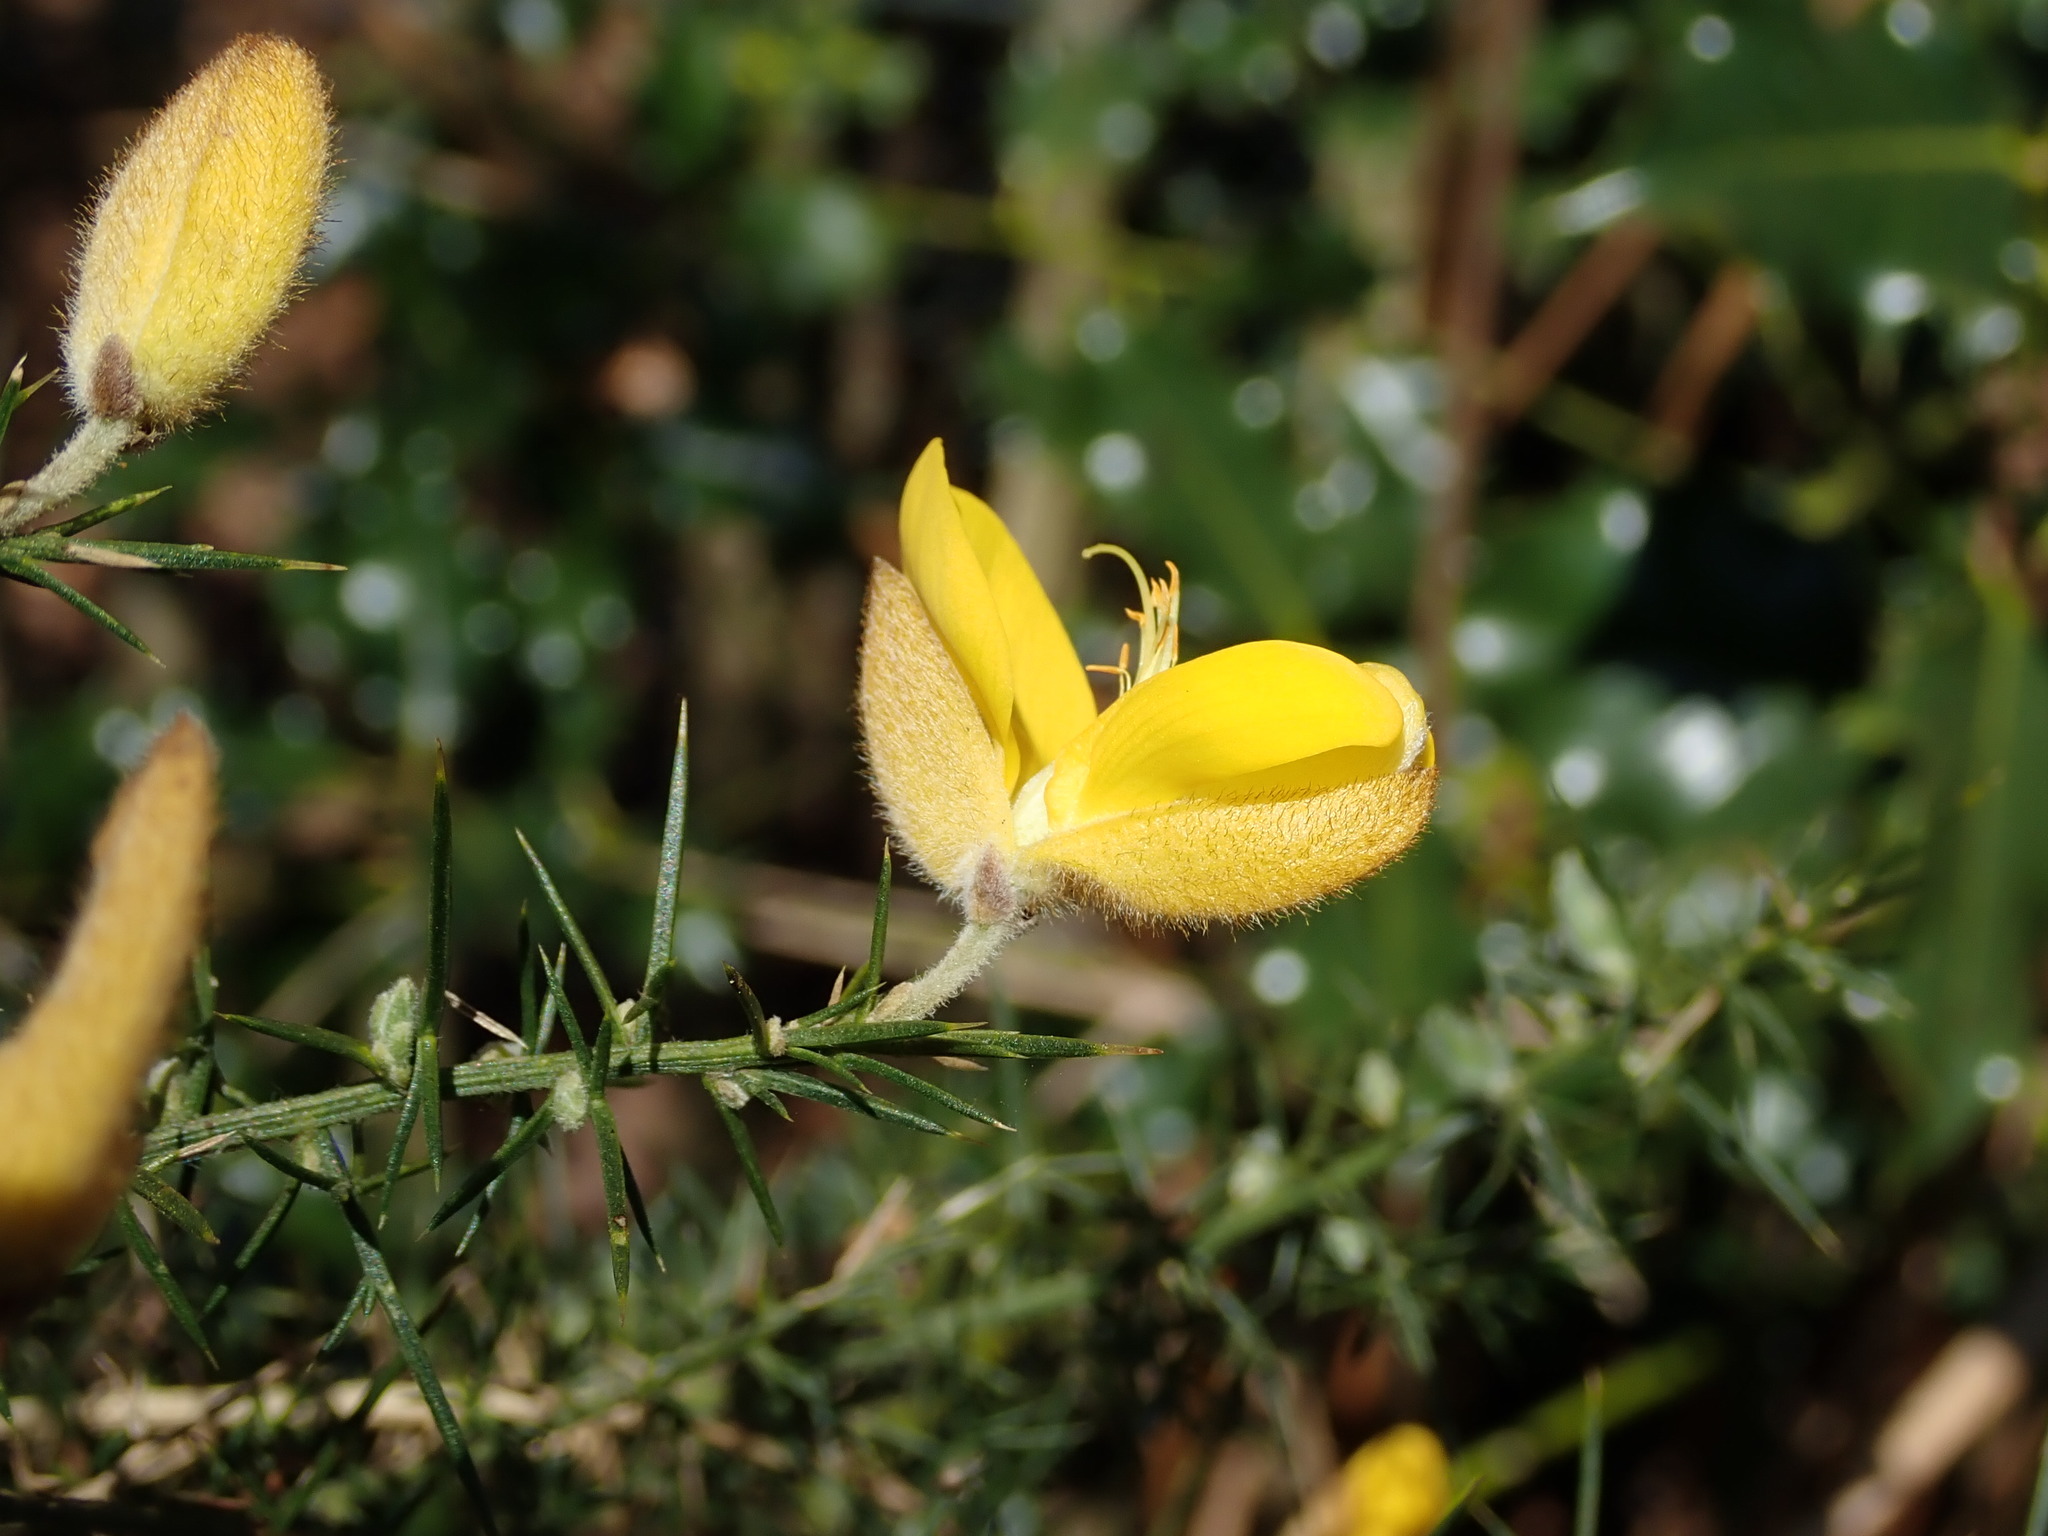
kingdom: Plantae
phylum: Tracheophyta
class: Magnoliopsida
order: Fabales
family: Fabaceae
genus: Ulex
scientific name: Ulex europaeus
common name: Common gorse
